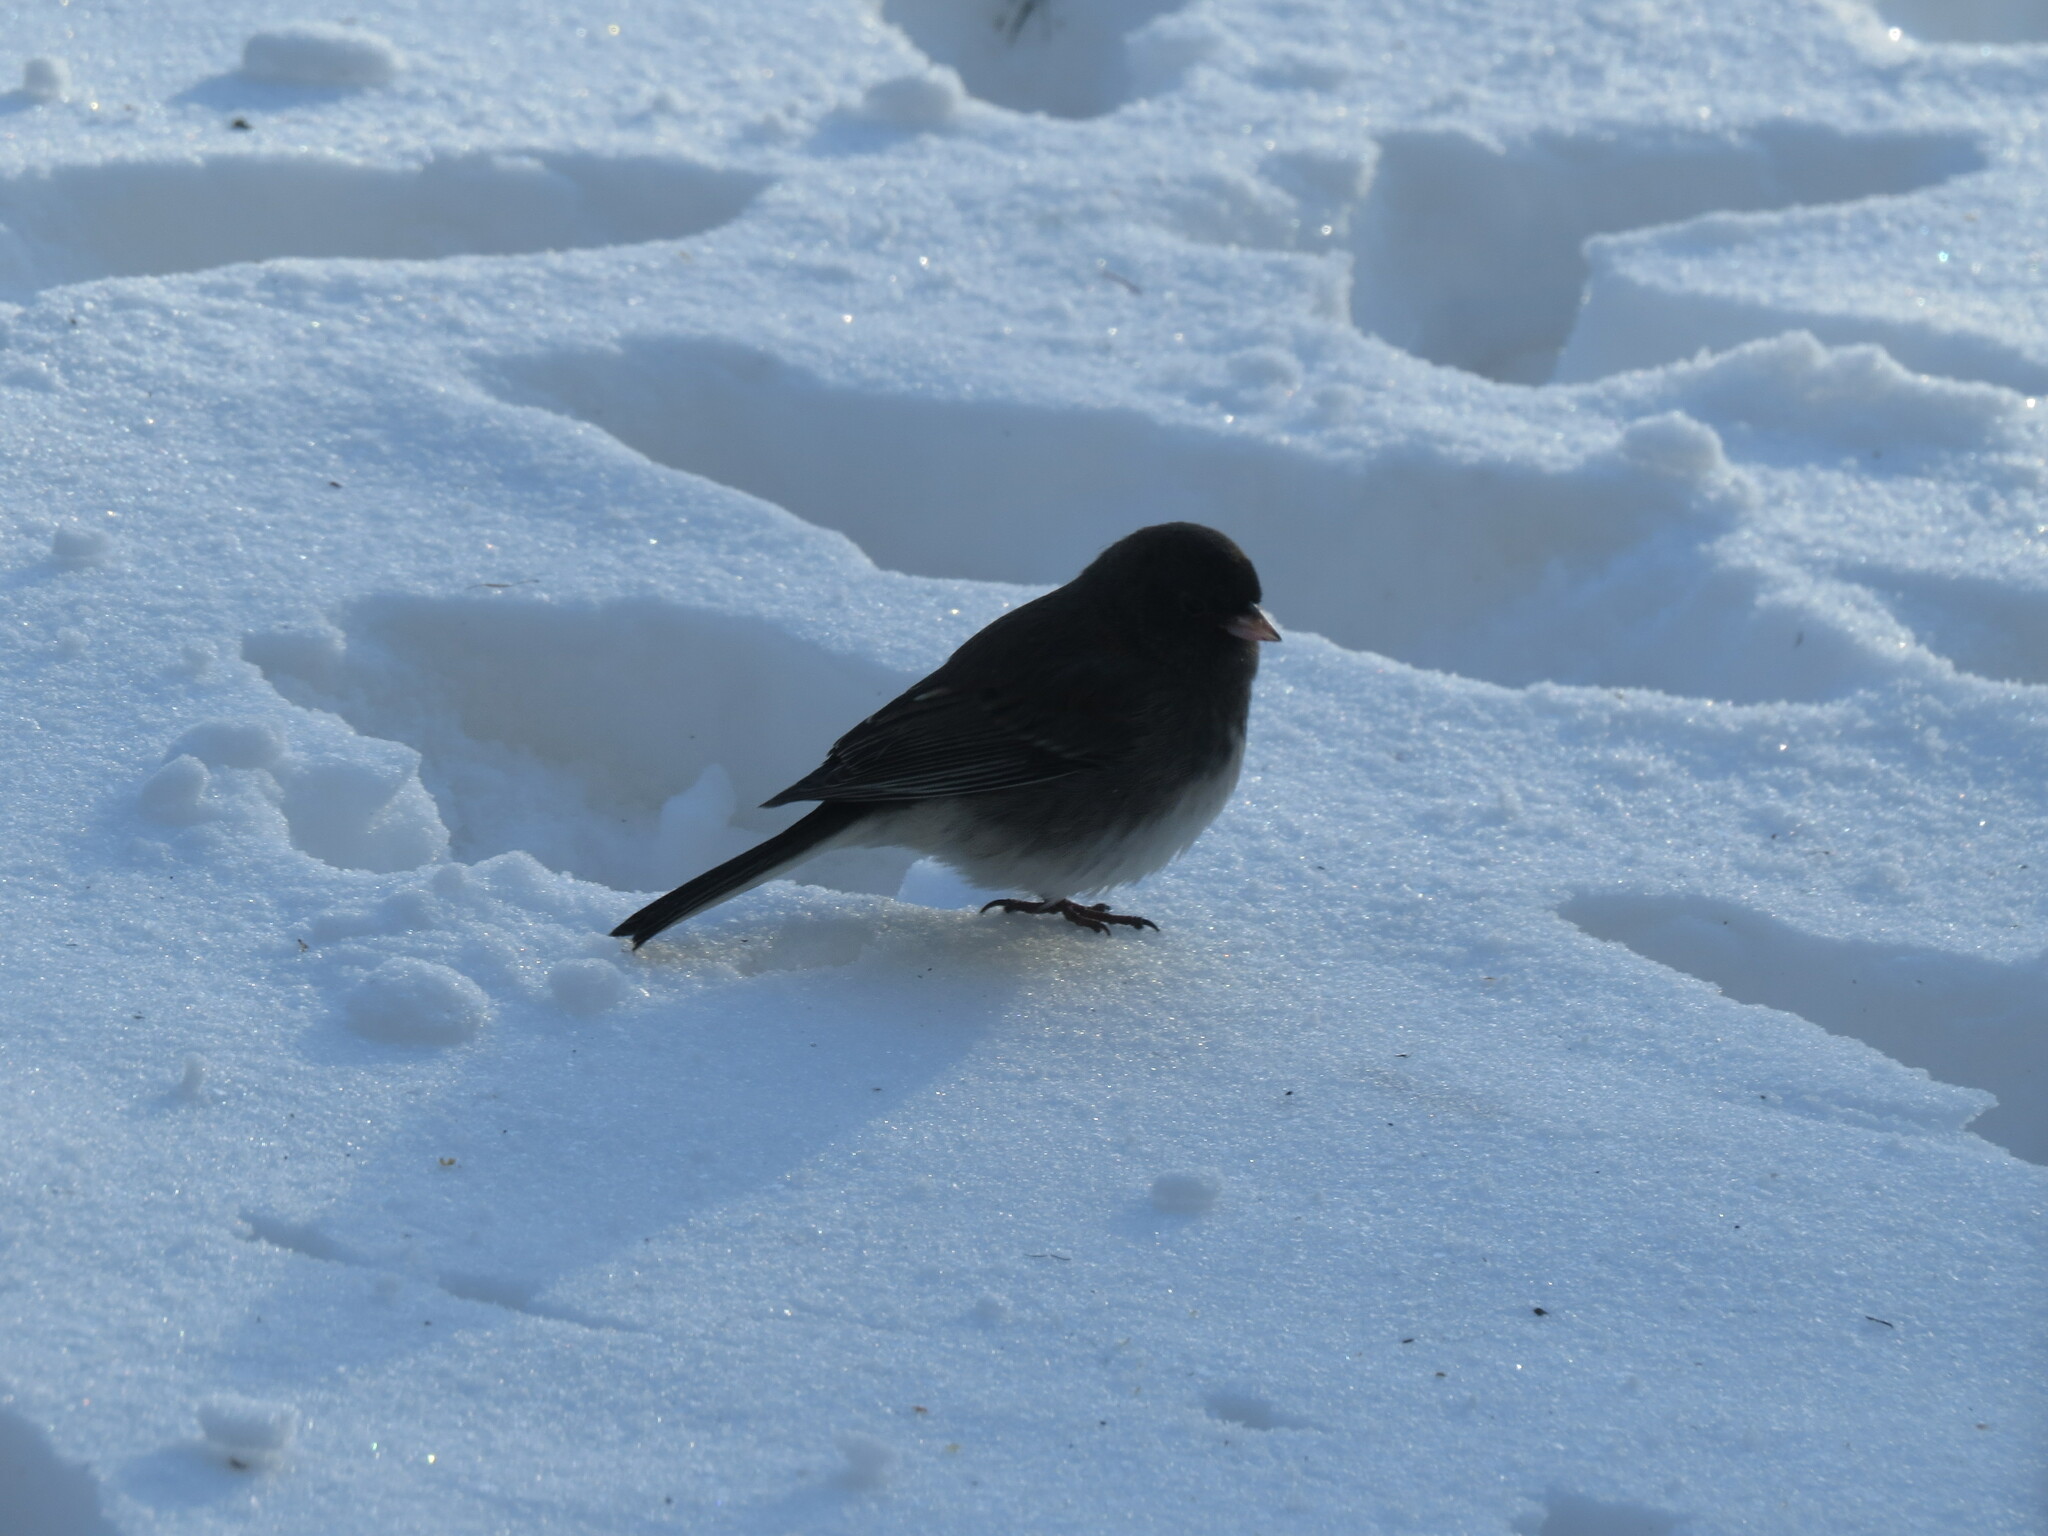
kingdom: Animalia
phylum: Chordata
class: Aves
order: Passeriformes
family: Passerellidae
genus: Junco
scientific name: Junco hyemalis
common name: Dark-eyed junco
